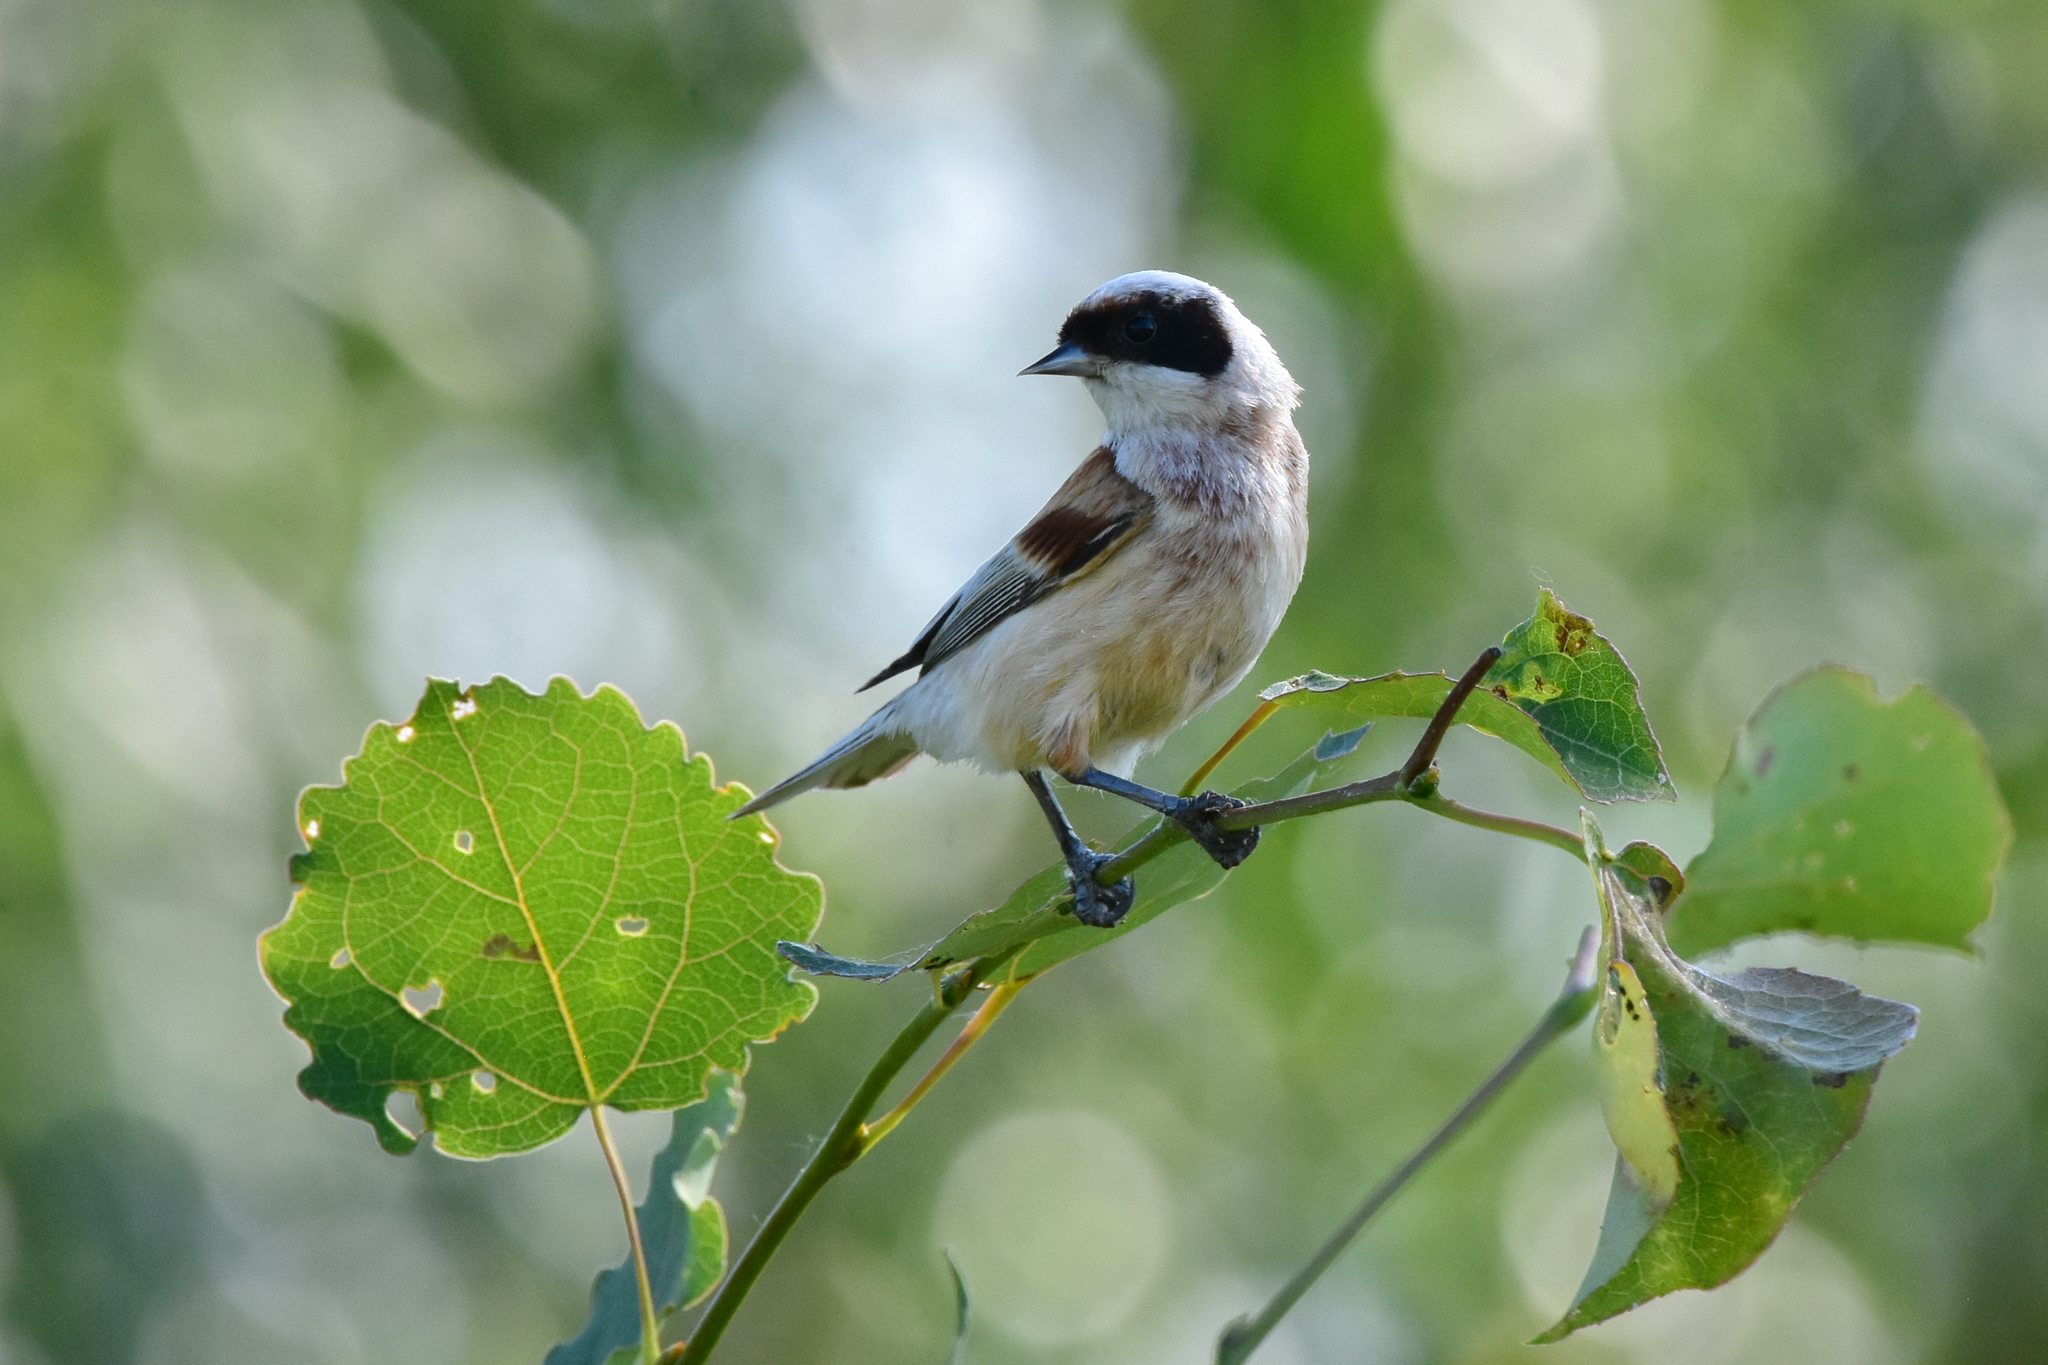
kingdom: Animalia
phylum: Chordata
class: Aves
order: Passeriformes
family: Remizidae
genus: Remiz
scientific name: Remiz pendulinus
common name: Eurasian penduline tit
